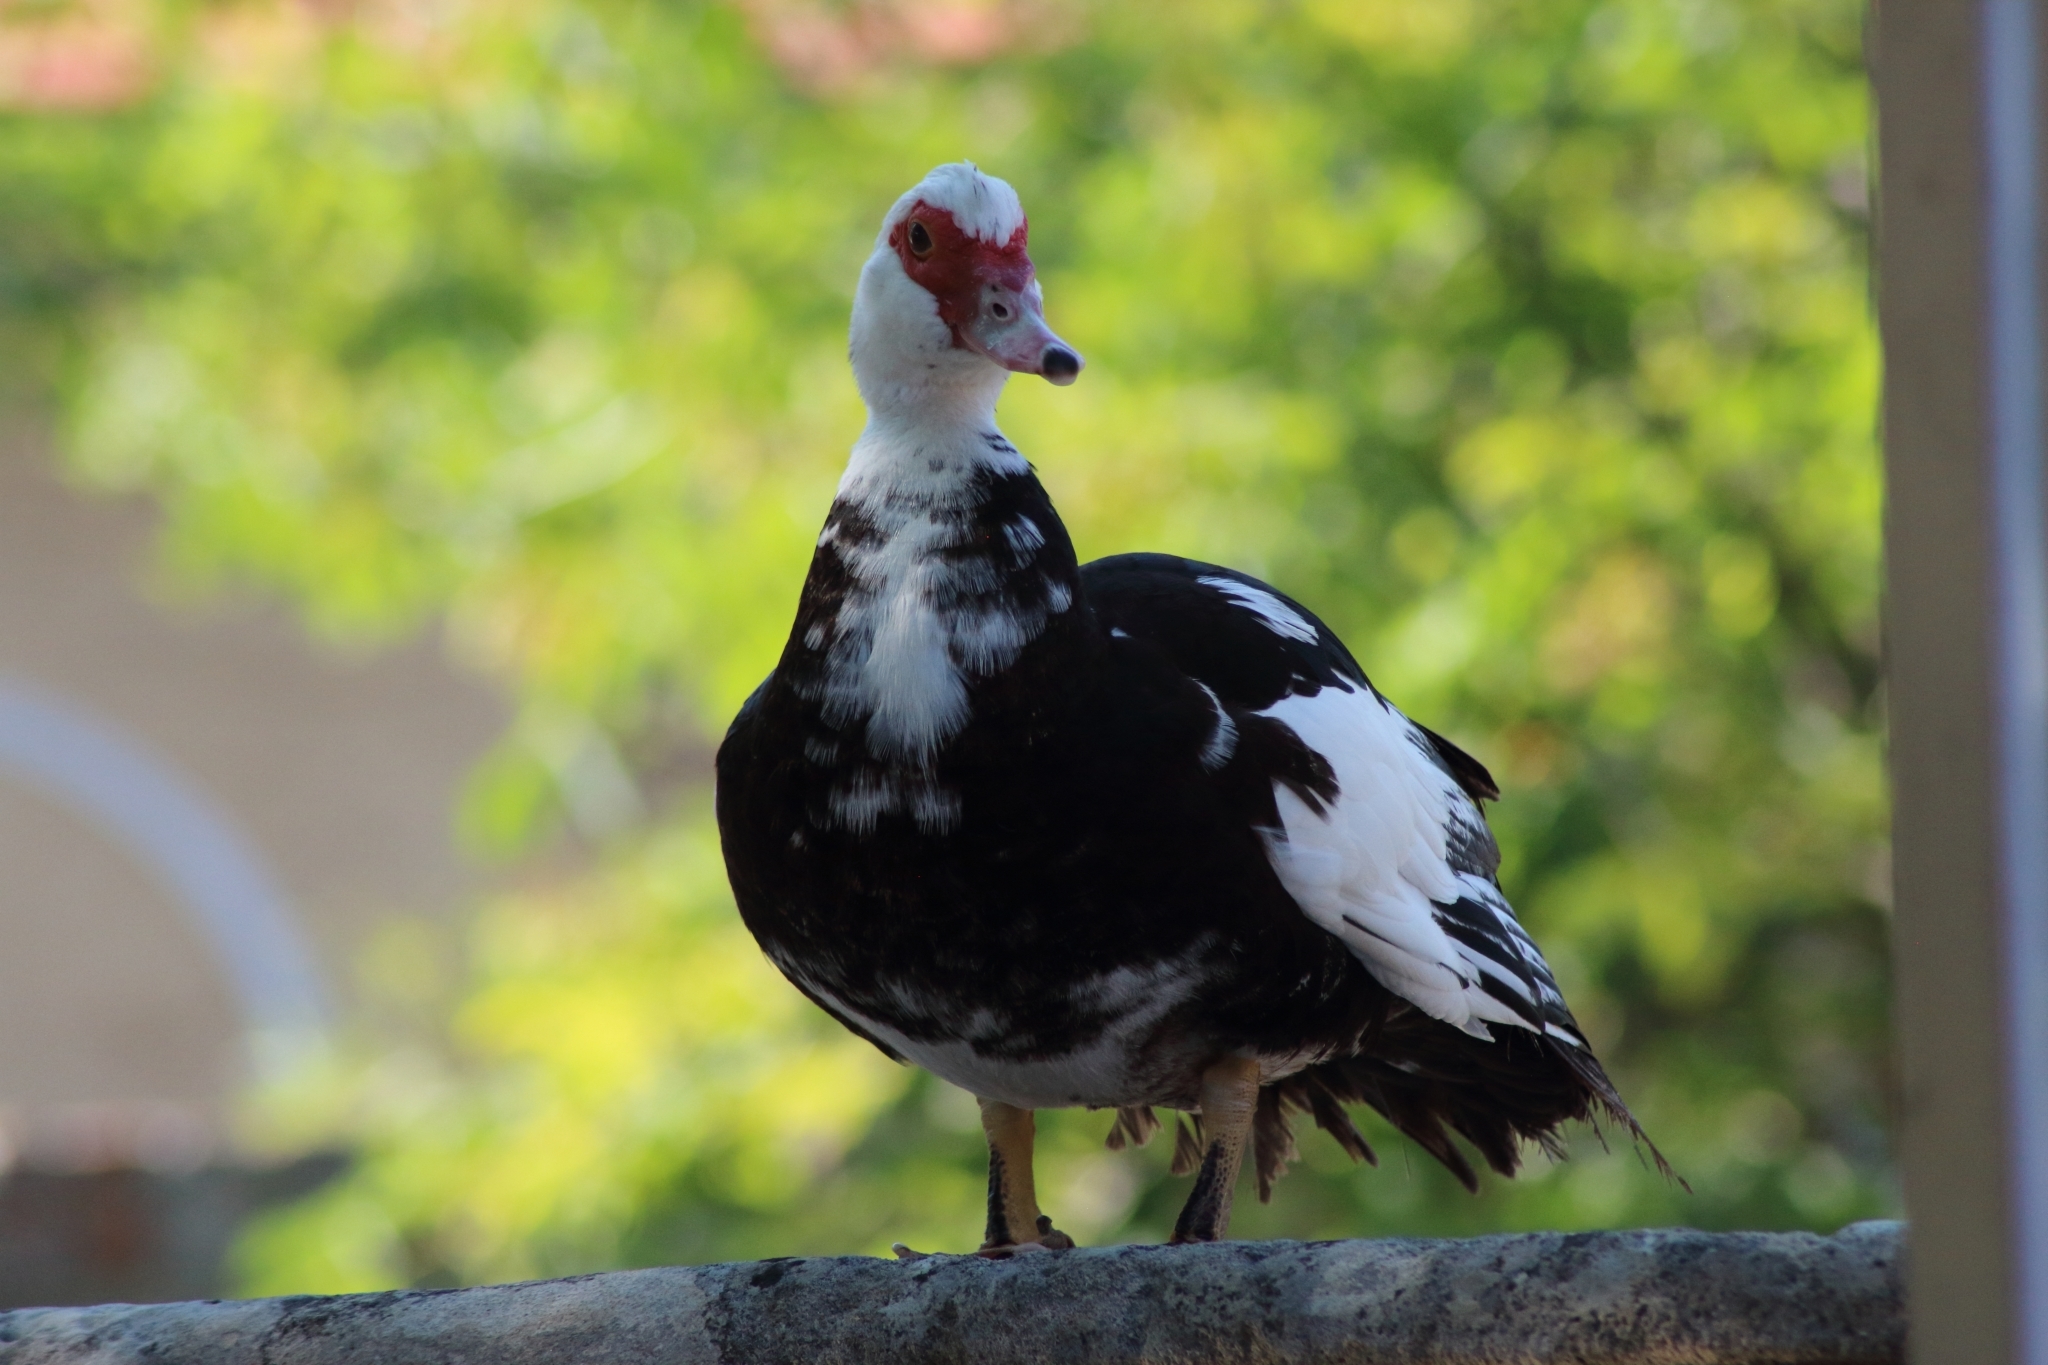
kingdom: Animalia
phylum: Chordata
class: Aves
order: Anseriformes
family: Anatidae
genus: Cairina
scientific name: Cairina moschata
